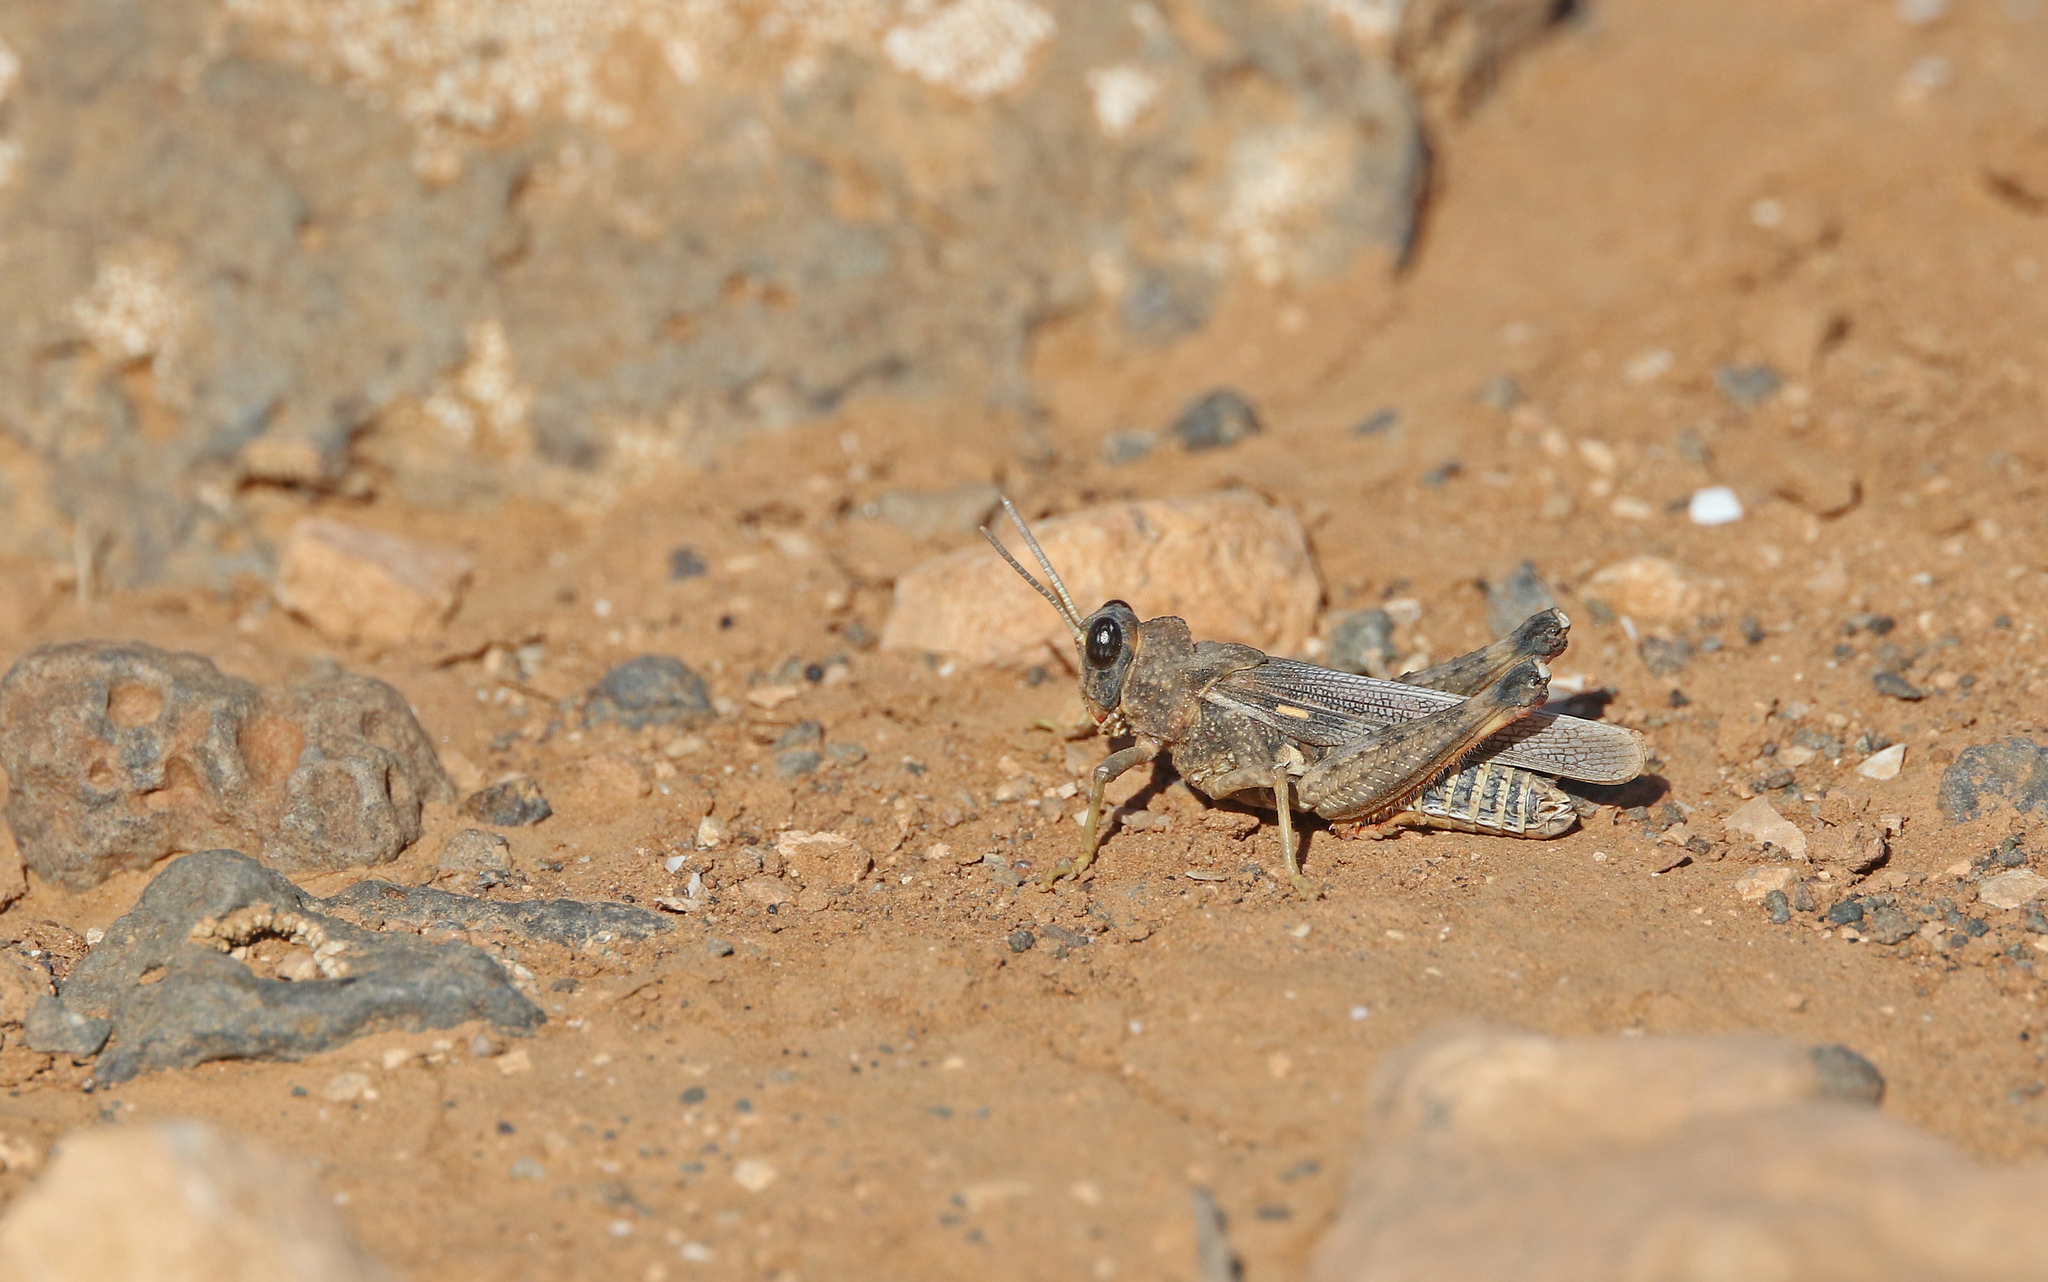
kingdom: Animalia
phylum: Arthropoda
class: Insecta
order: Orthoptera
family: Dericorythidae
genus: Dericorys
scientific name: Dericorys lobata
